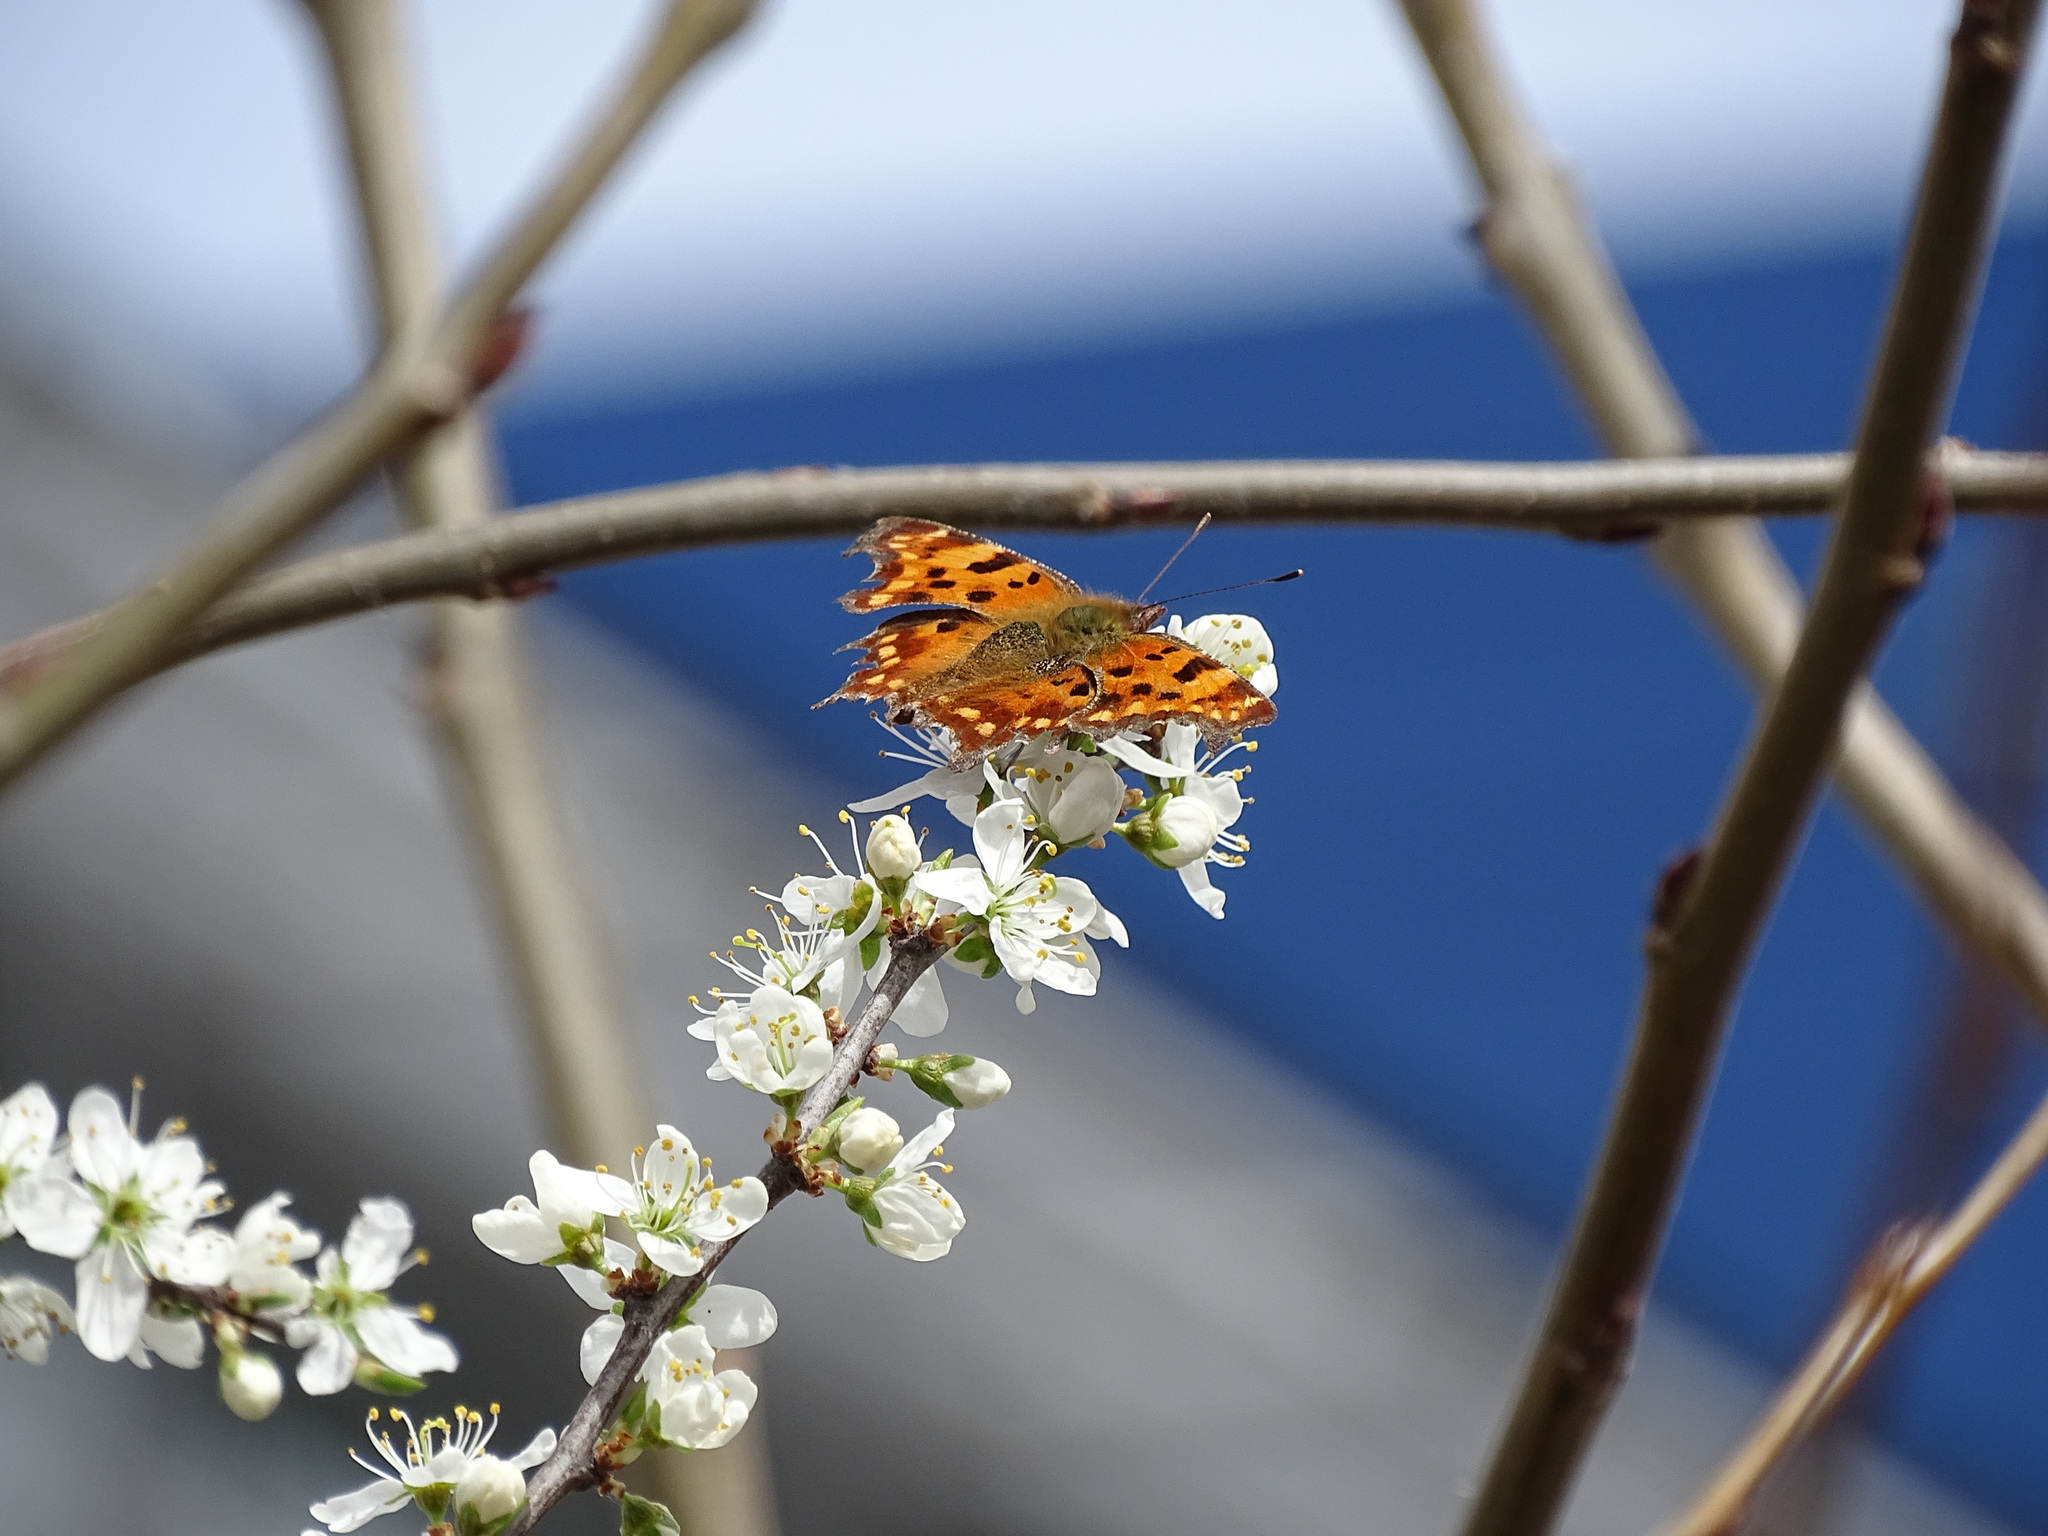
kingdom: Animalia
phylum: Arthropoda
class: Insecta
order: Lepidoptera
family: Nymphalidae
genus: Polygonia
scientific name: Polygonia c-album
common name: Comma
